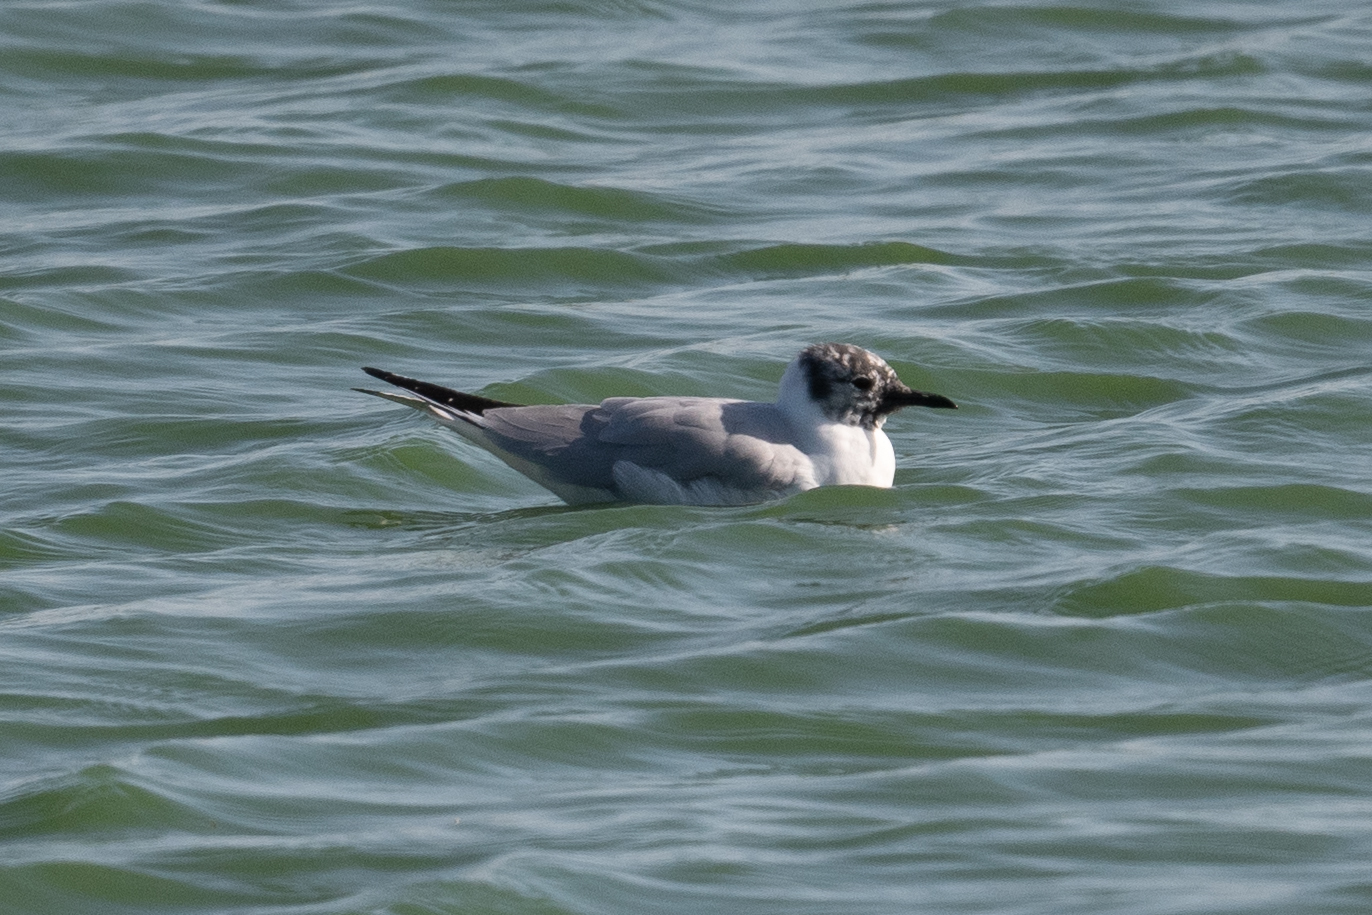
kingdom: Animalia
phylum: Chordata
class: Aves
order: Charadriiformes
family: Laridae
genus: Chroicocephalus
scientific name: Chroicocephalus philadelphia
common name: Bonaparte's gull
